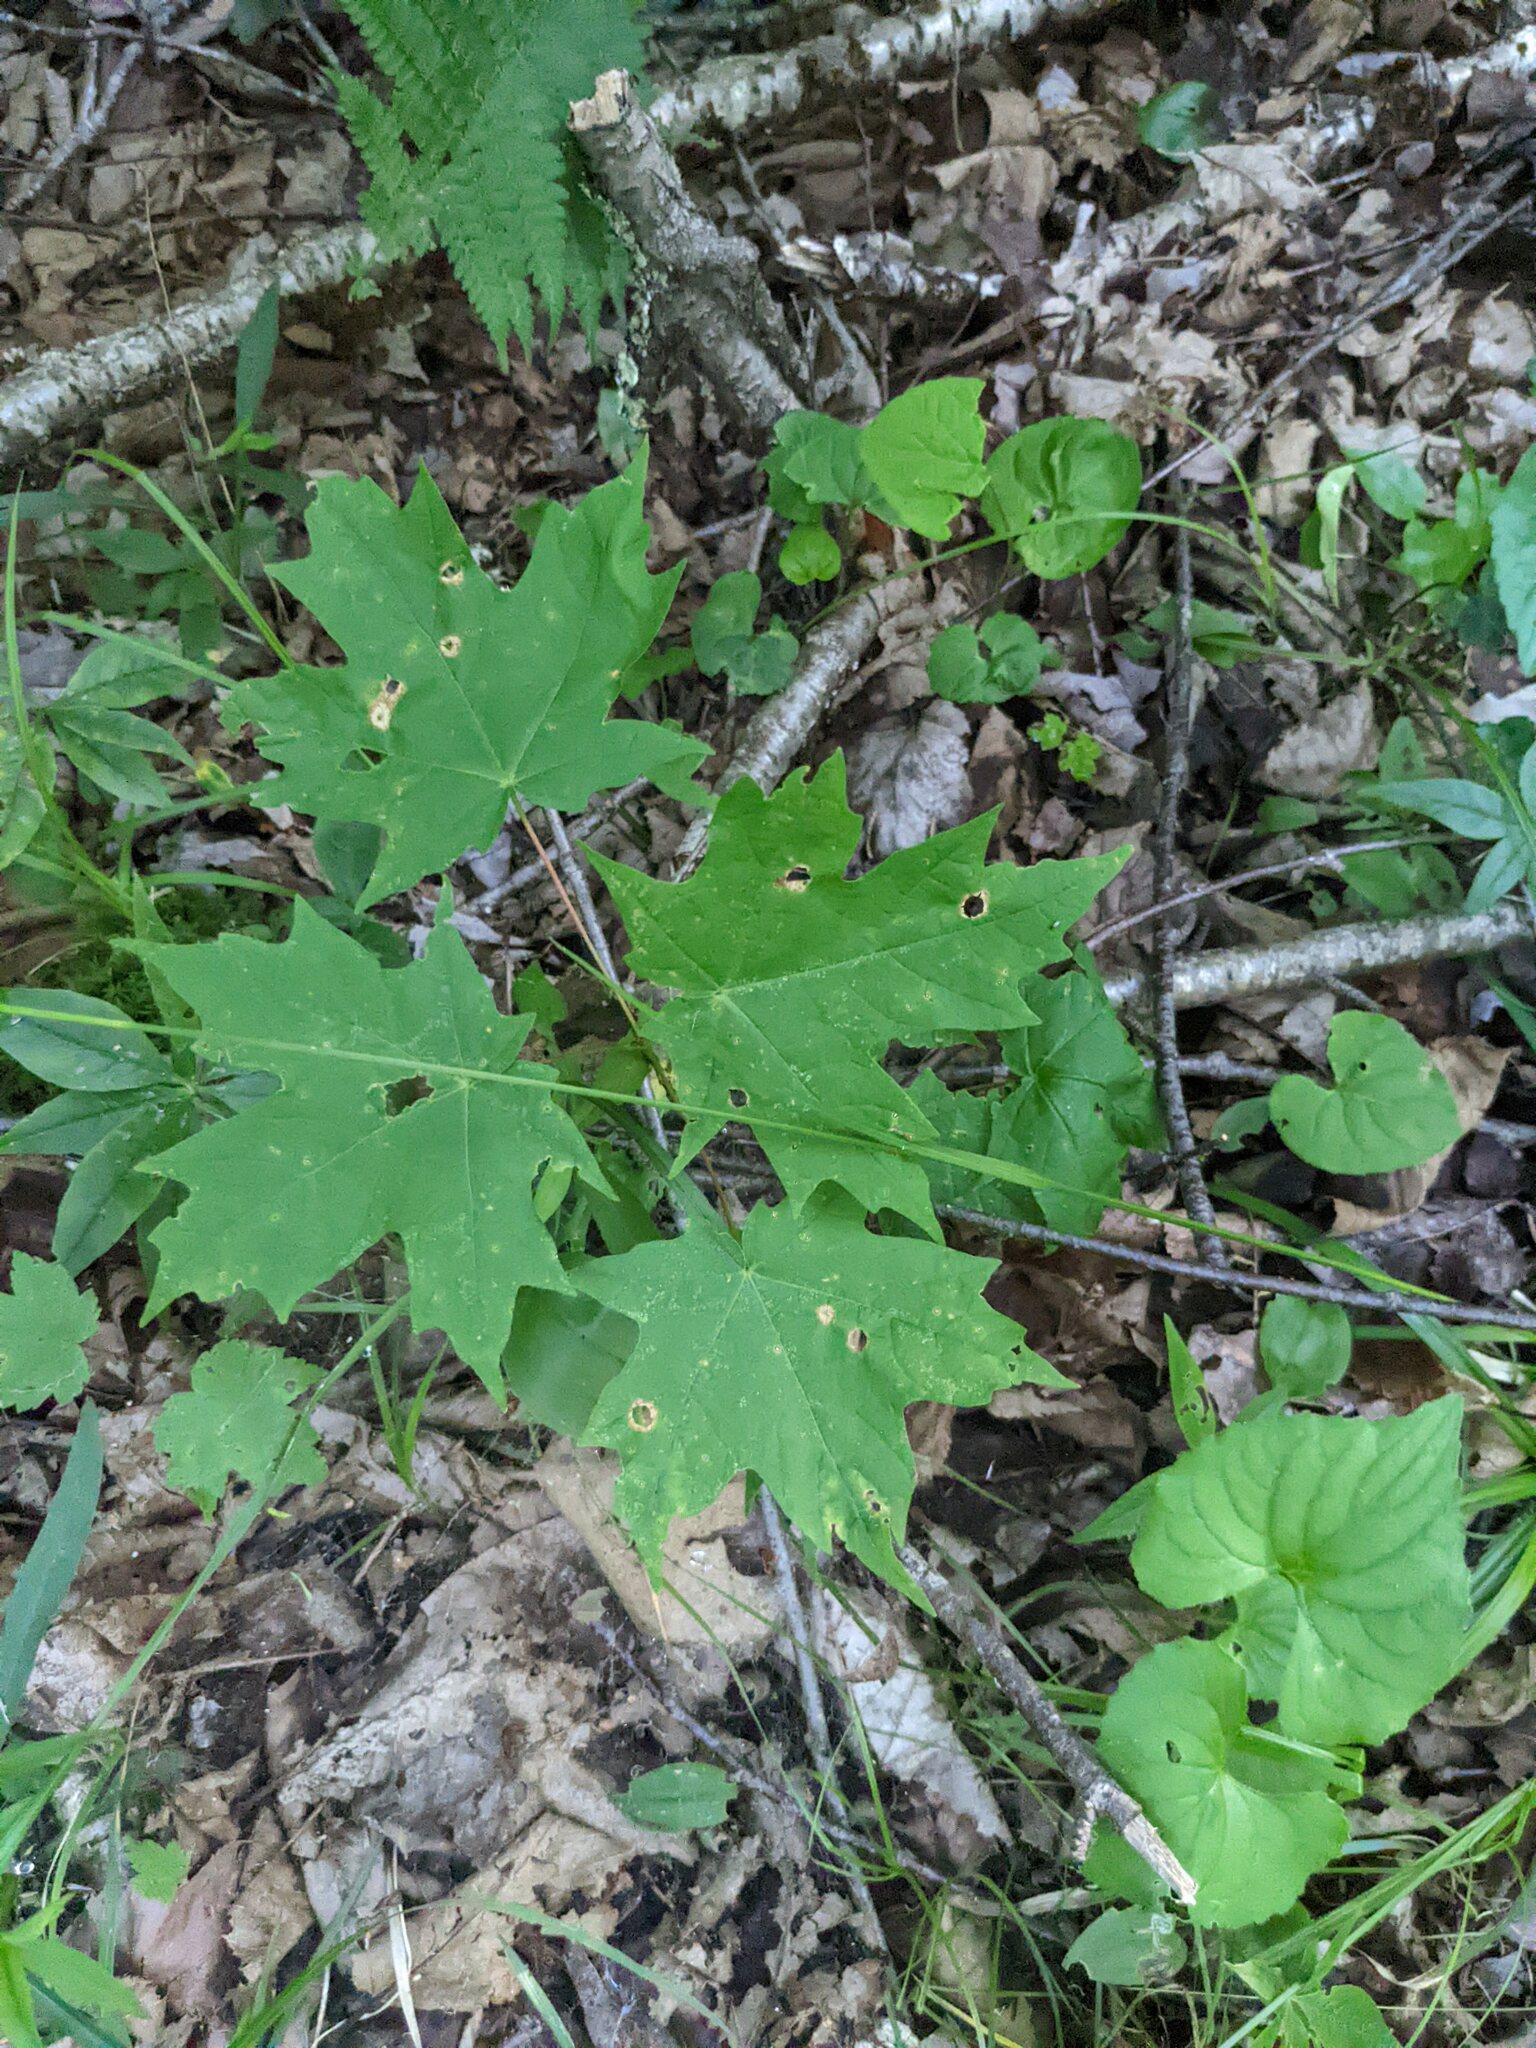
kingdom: Plantae
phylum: Tracheophyta
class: Magnoliopsida
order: Sapindales
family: Sapindaceae
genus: Acer
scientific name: Acer saccharum
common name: Sugar maple
